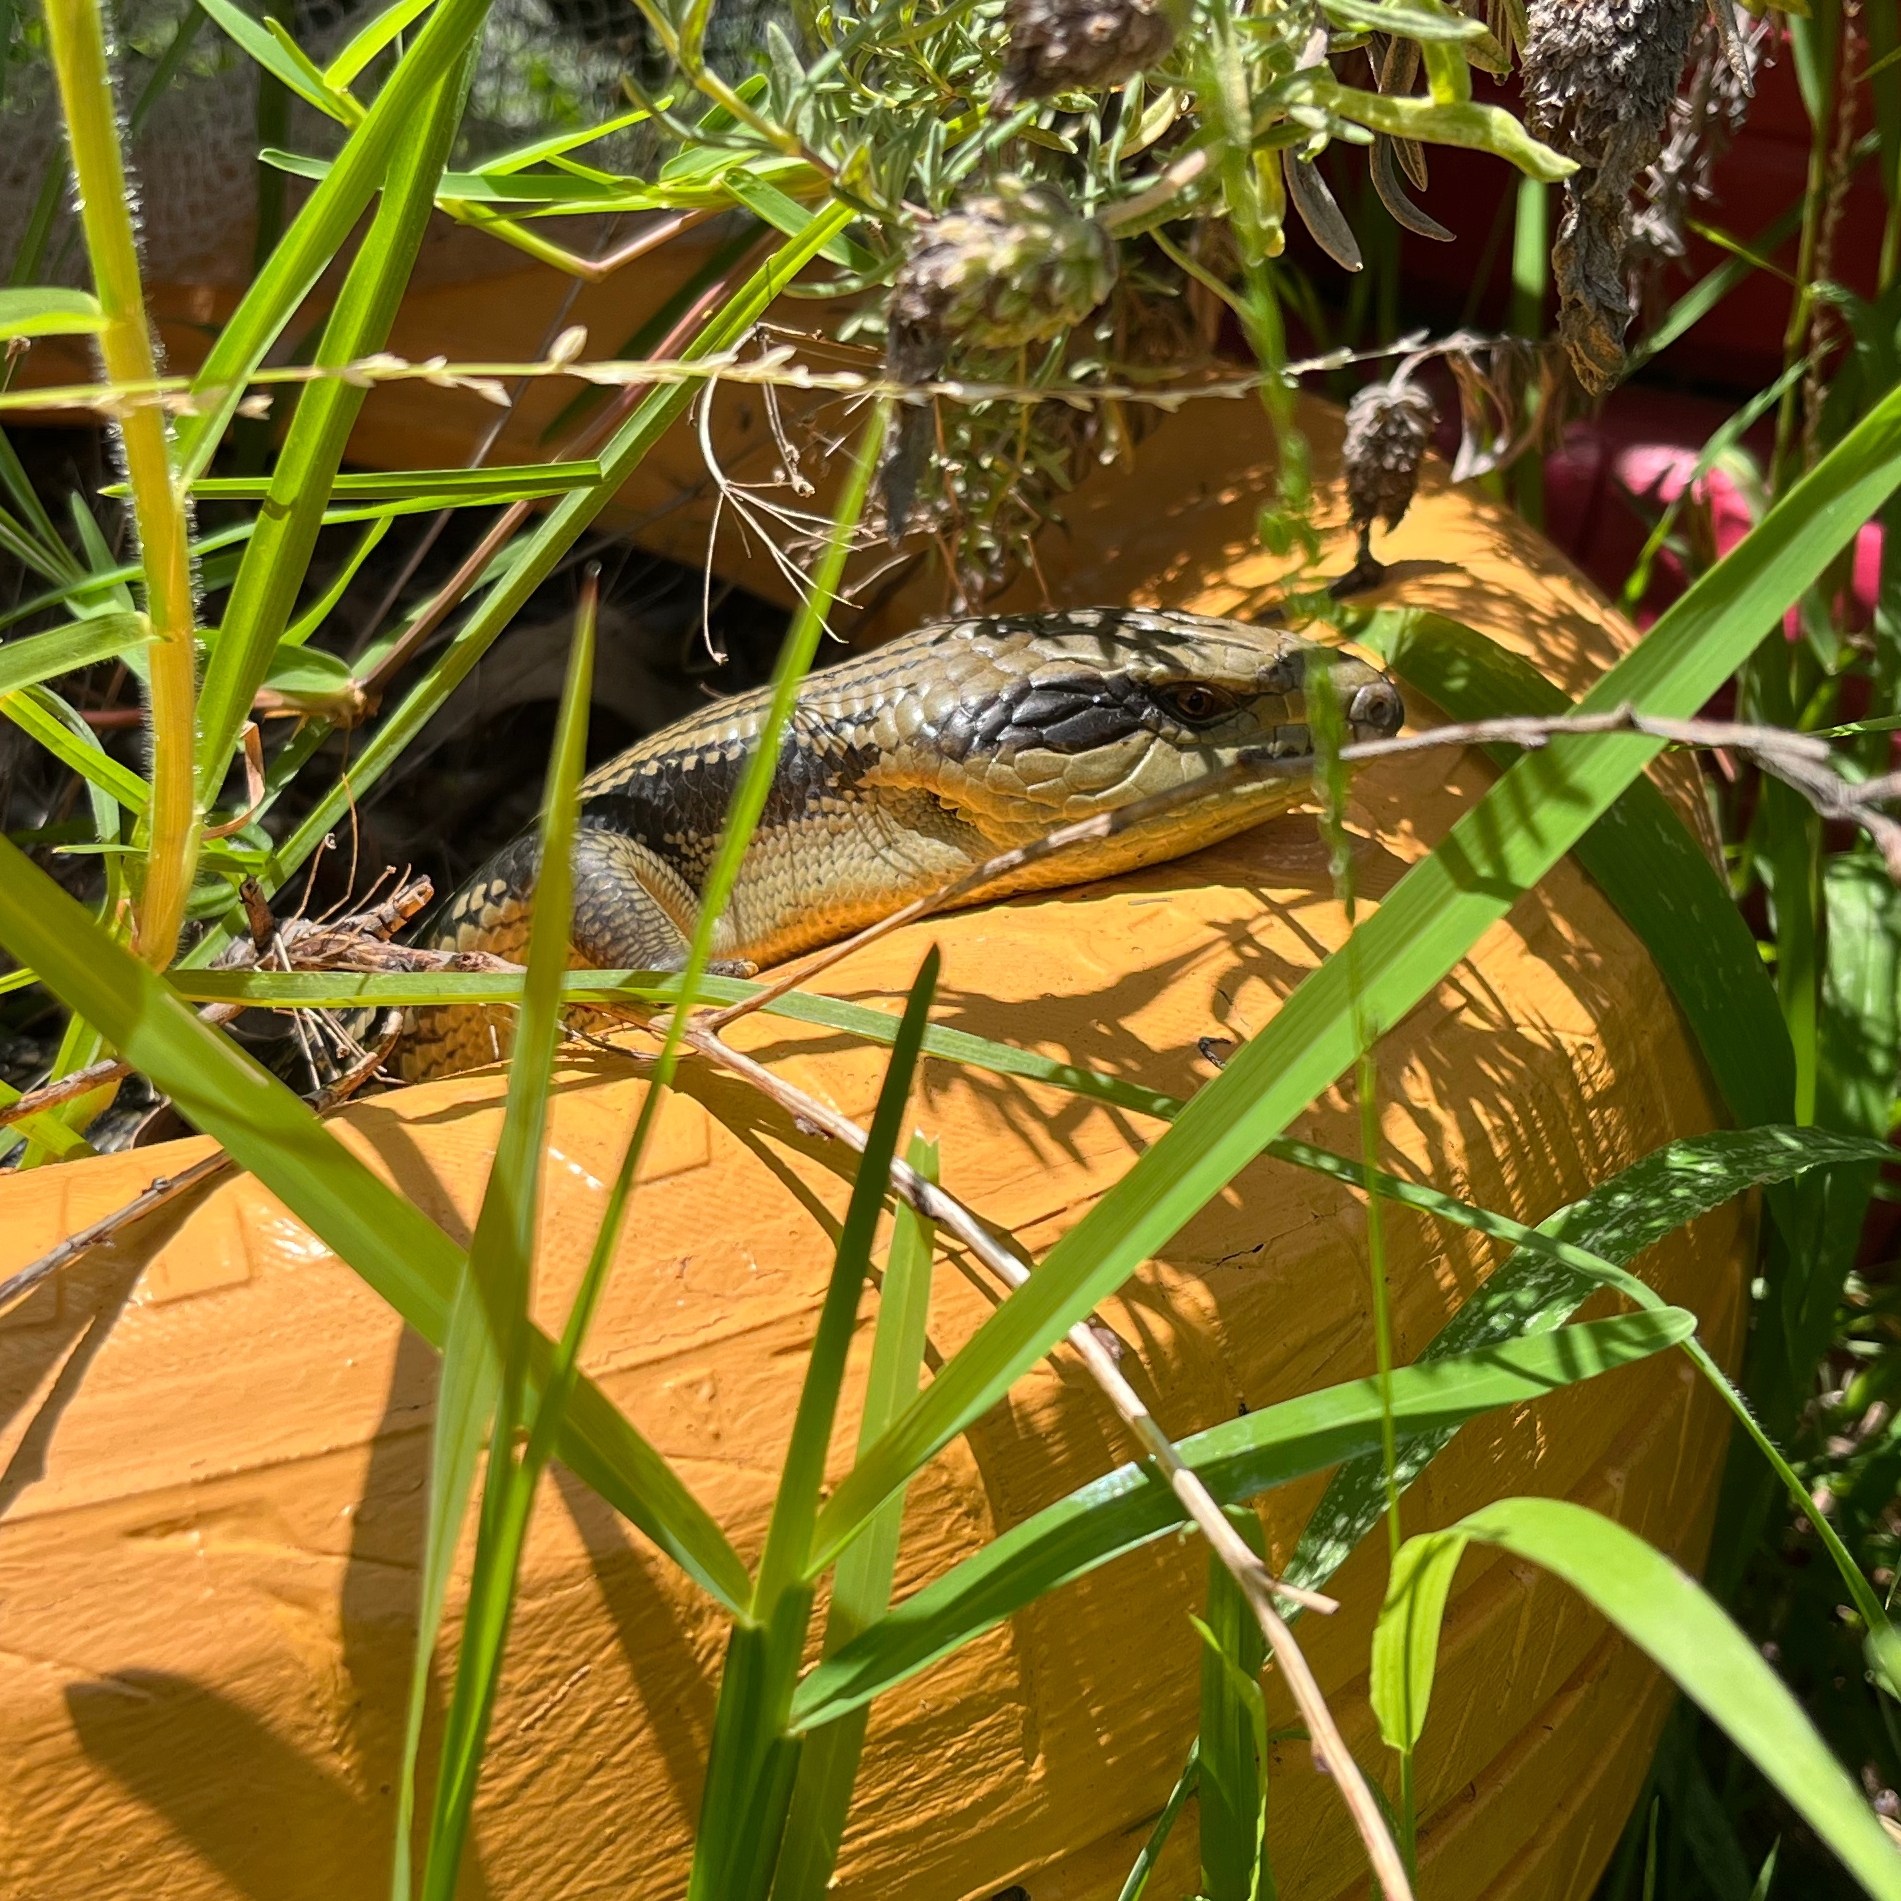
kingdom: Animalia
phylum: Chordata
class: Squamata
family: Scincidae
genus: Tiliqua
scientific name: Tiliqua scincoides
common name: Common bluetongue
